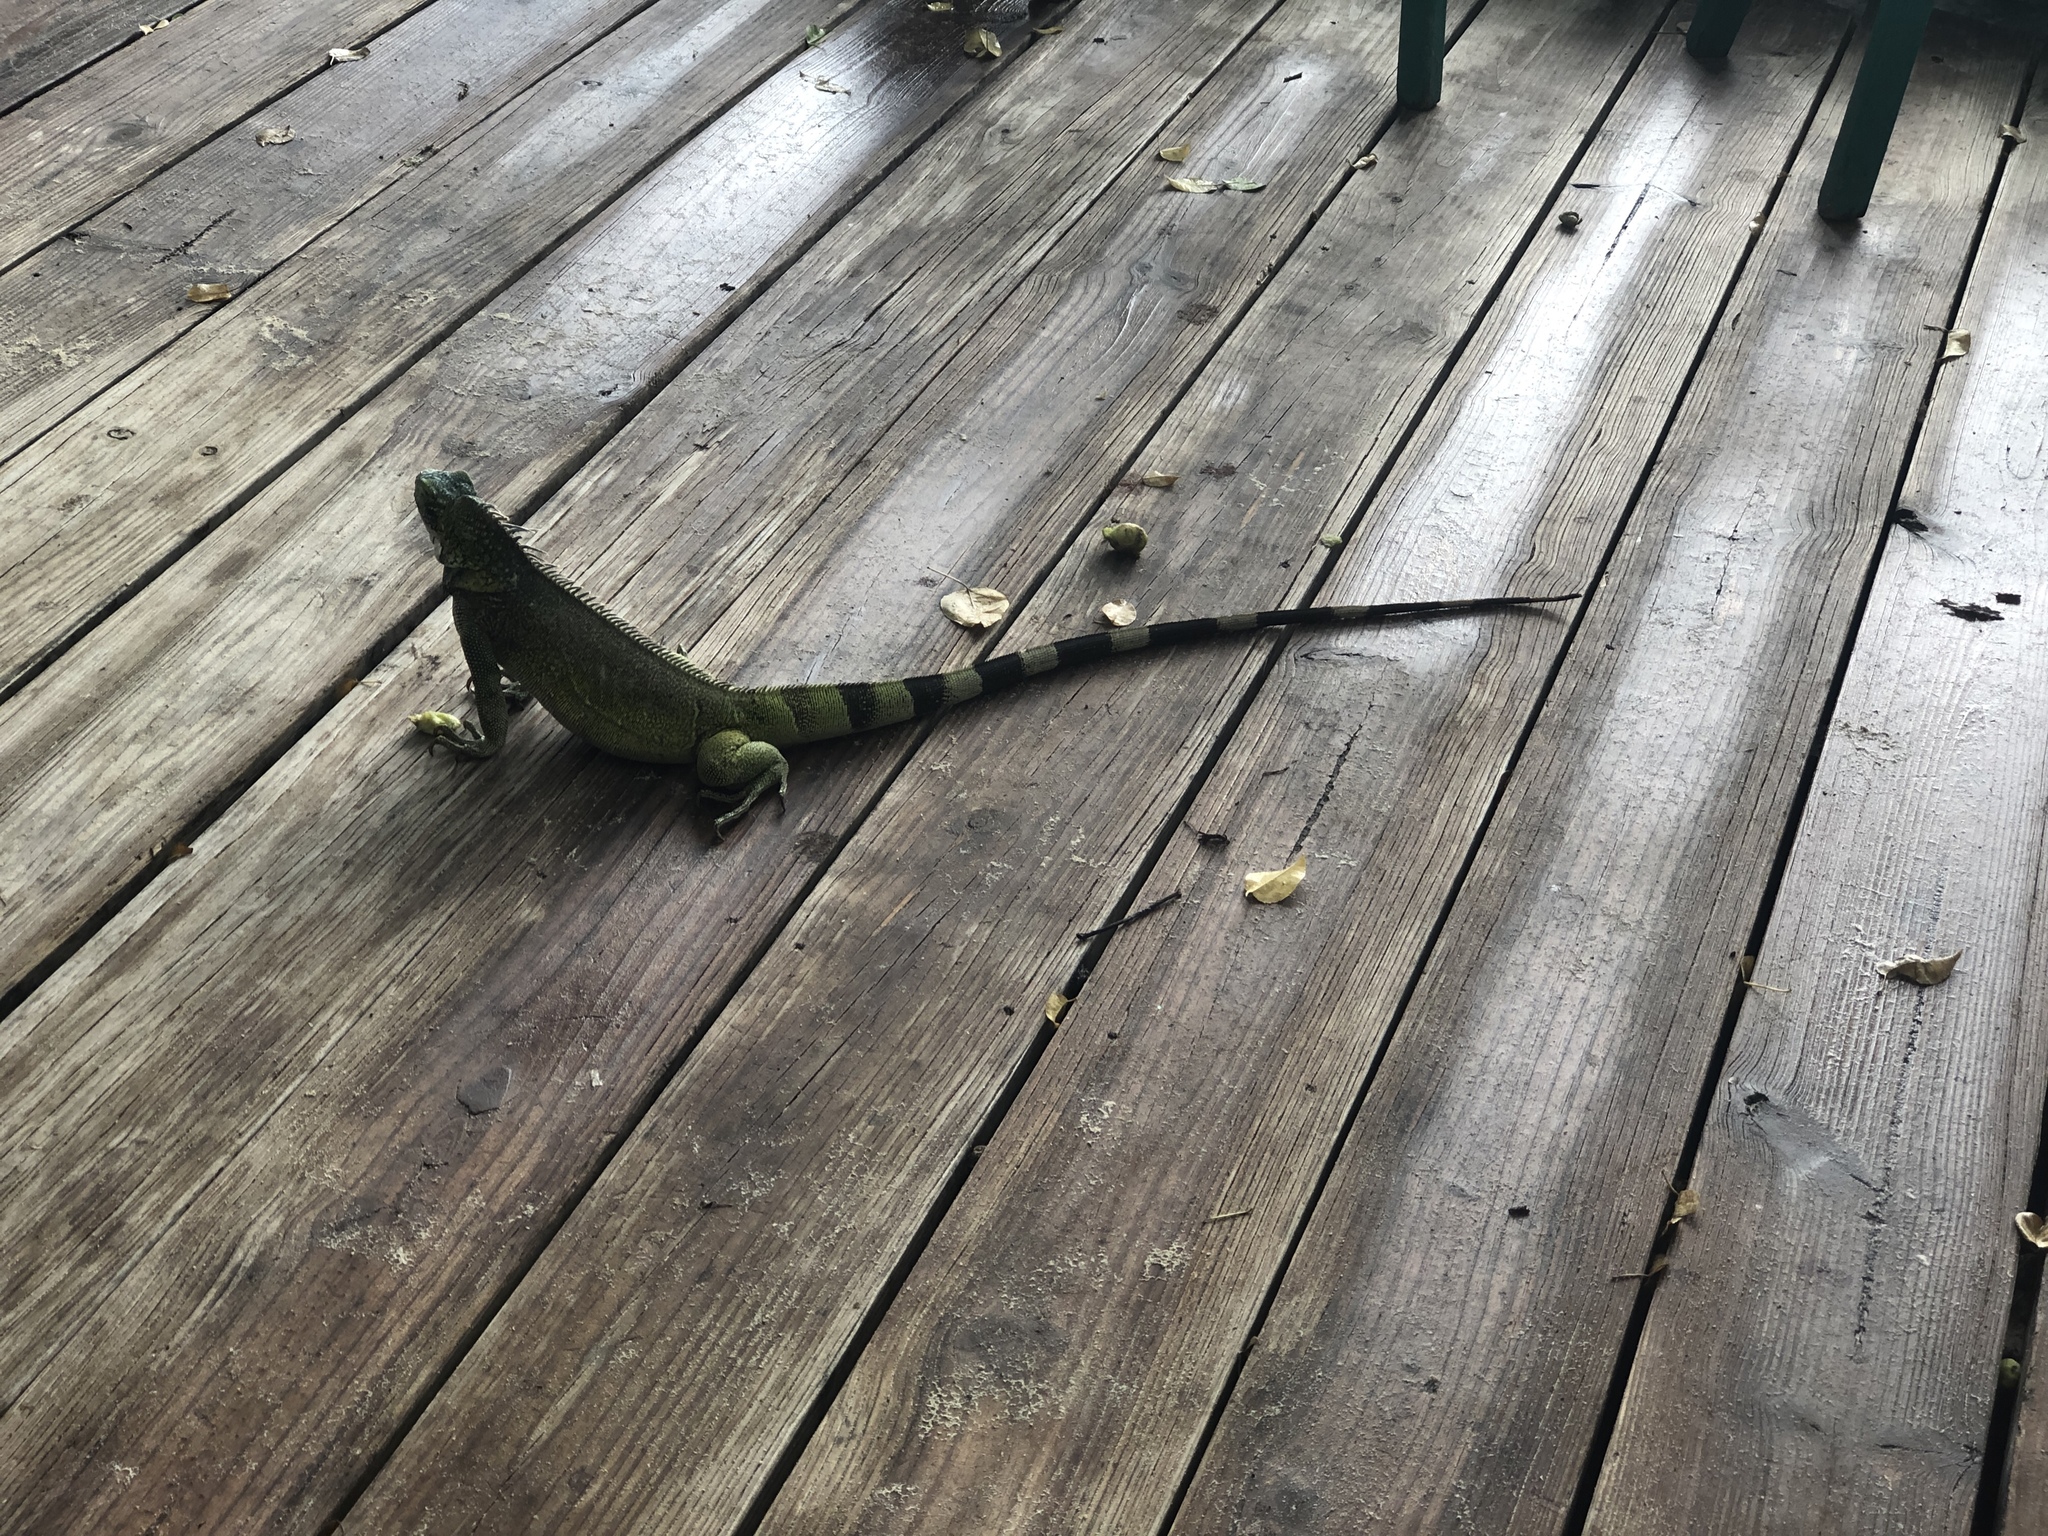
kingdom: Animalia
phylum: Chordata
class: Squamata
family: Iguanidae
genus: Iguana
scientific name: Iguana iguana
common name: Green iguana
